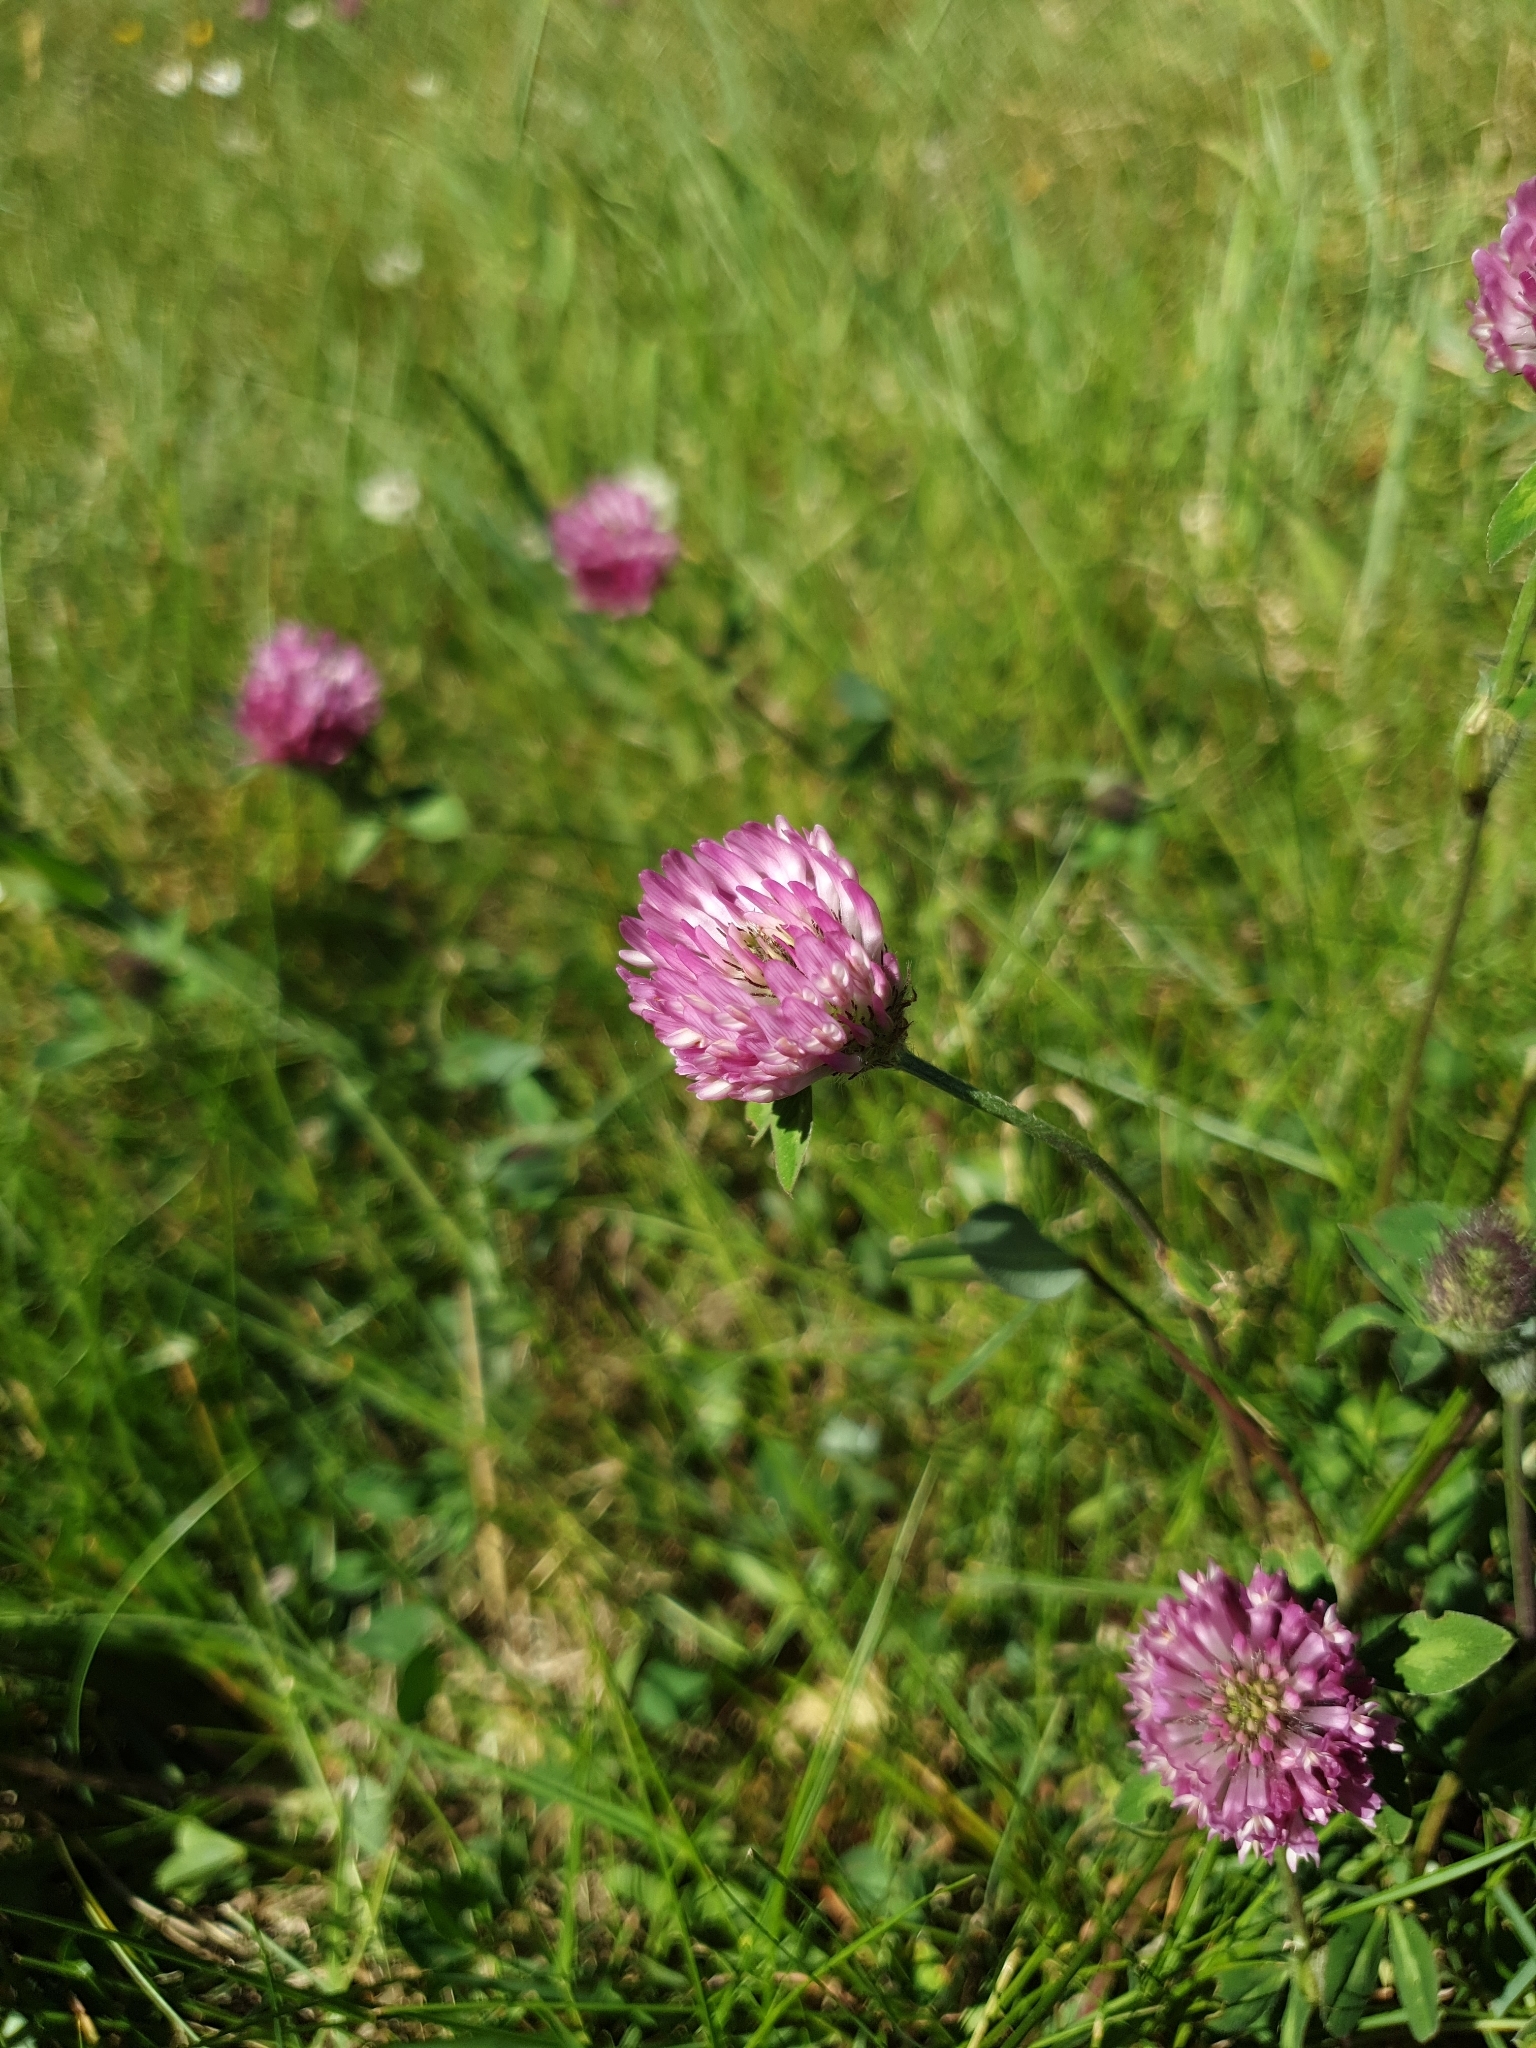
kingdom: Plantae
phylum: Tracheophyta
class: Magnoliopsida
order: Fabales
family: Fabaceae
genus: Trifolium
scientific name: Trifolium pratense
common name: Red clover
